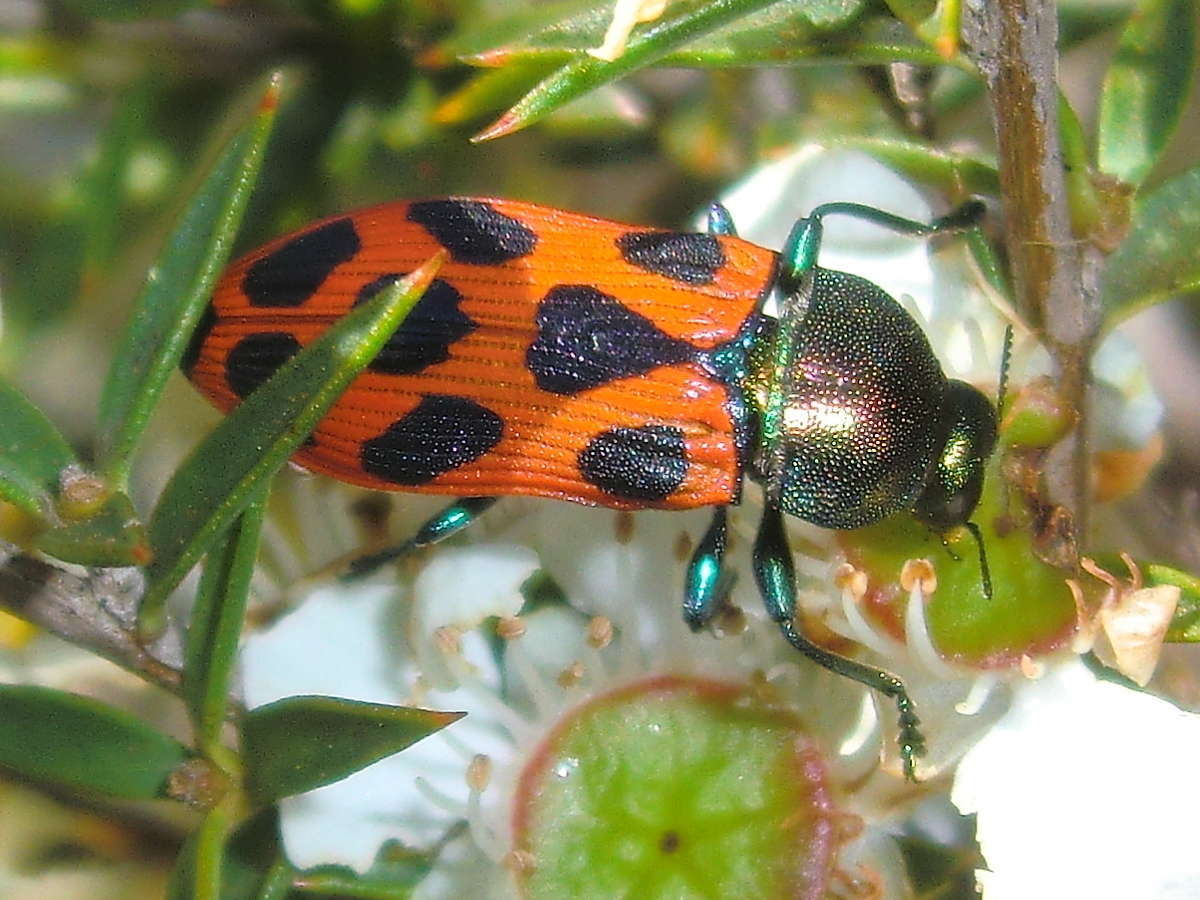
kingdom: Animalia
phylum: Arthropoda
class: Insecta
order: Coleoptera
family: Buprestidae
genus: Castiarina
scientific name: Castiarina octomaculata
